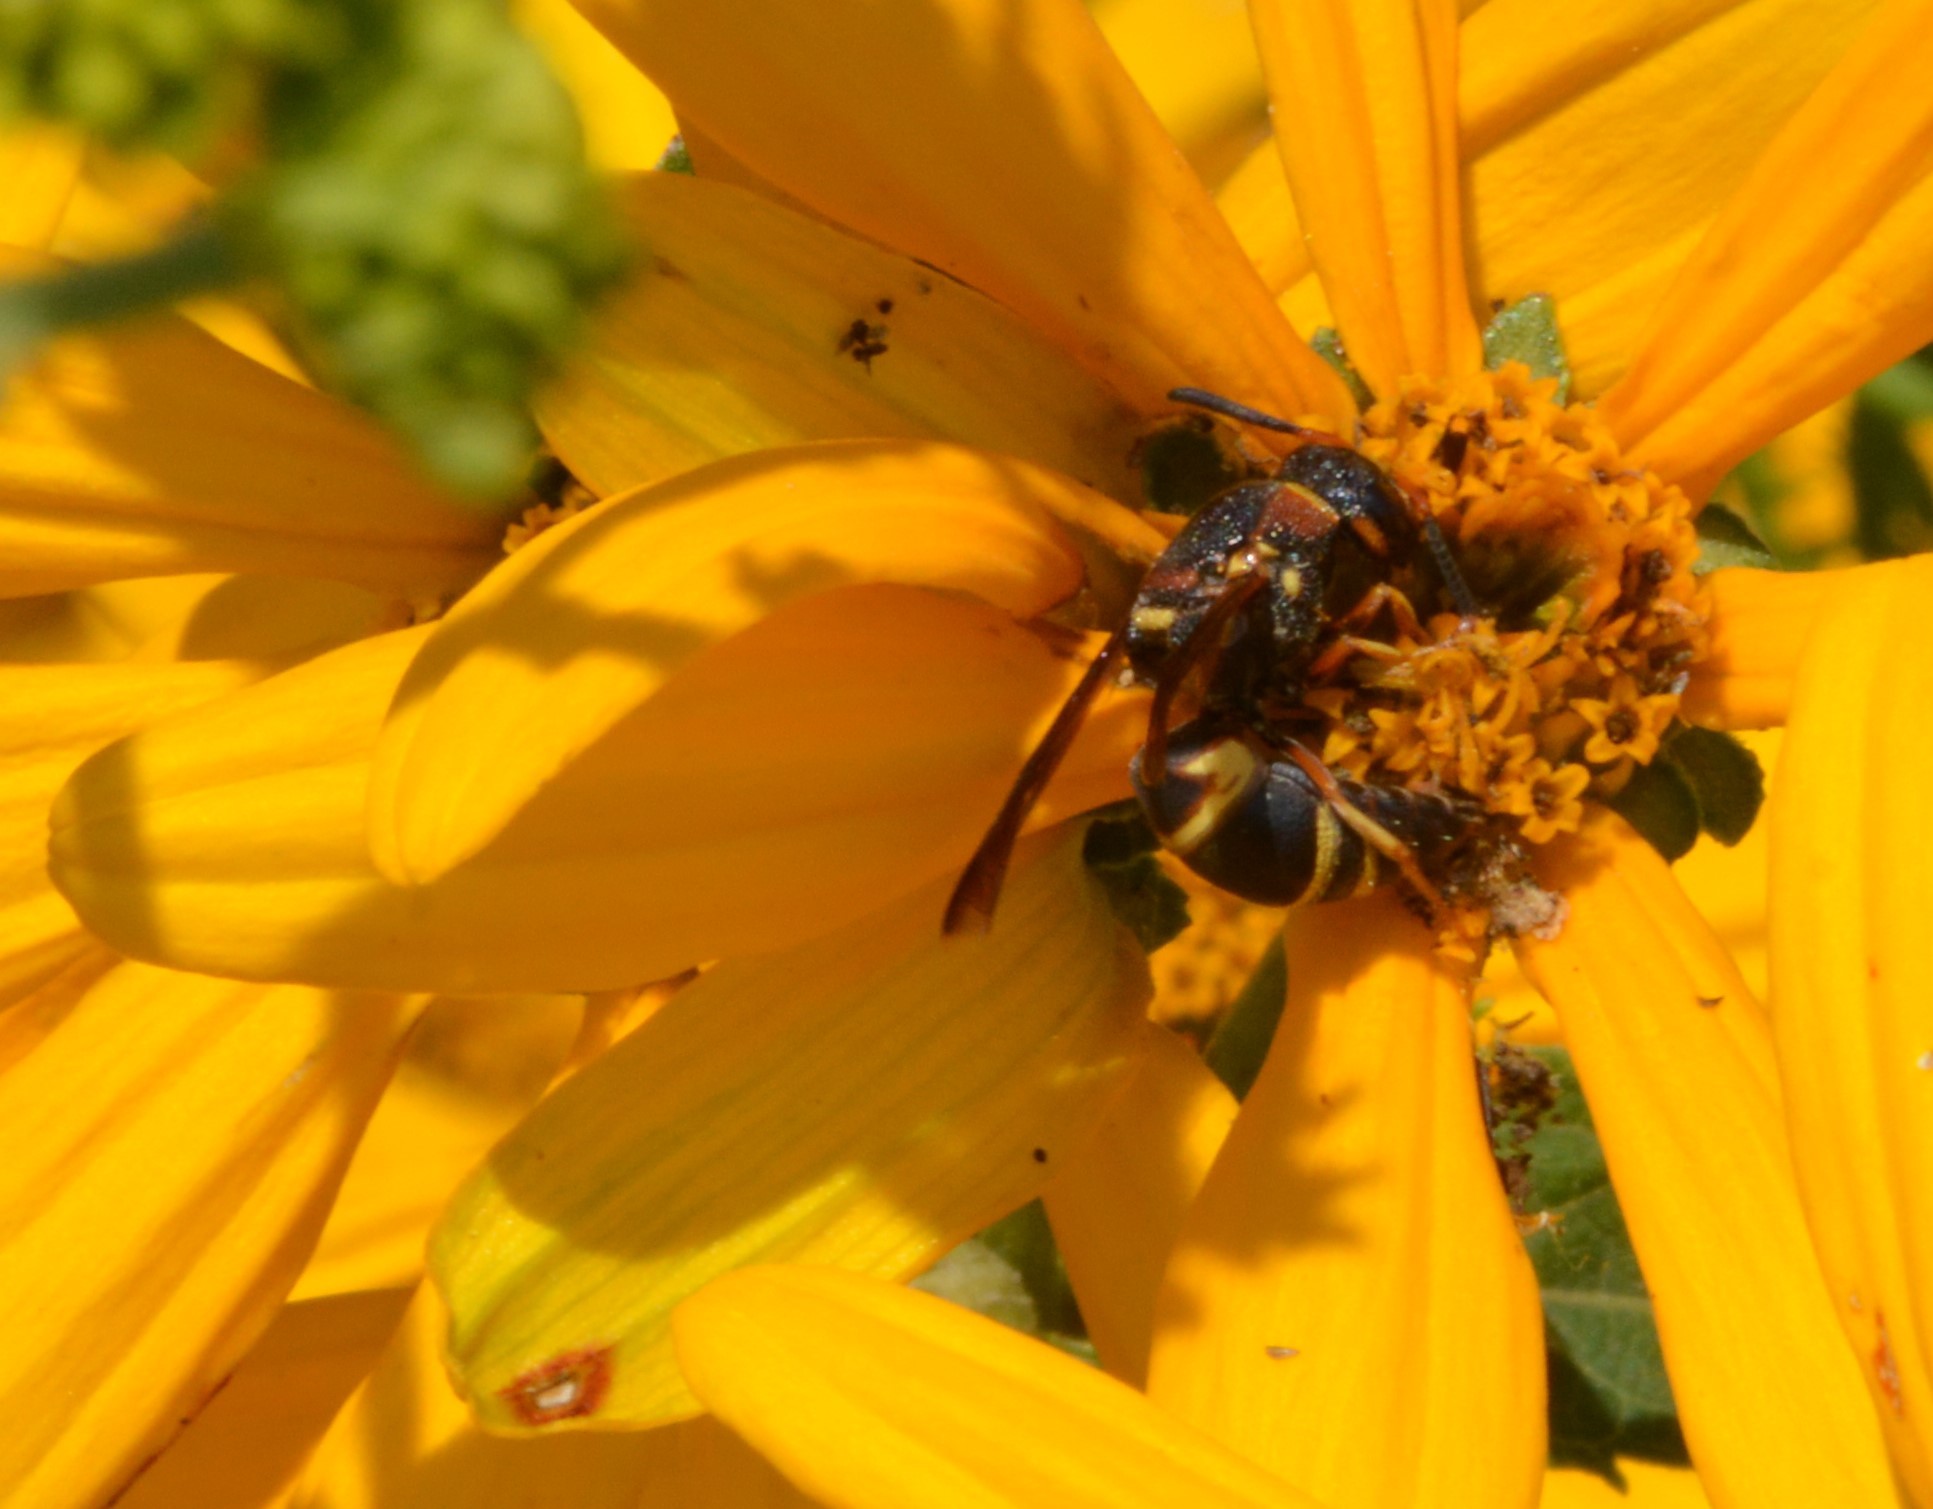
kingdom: Animalia
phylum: Arthropoda
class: Insecta
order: Hymenoptera
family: Eumenidae
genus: Euodynerus
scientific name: Euodynerus hidalgo
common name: Wasp
